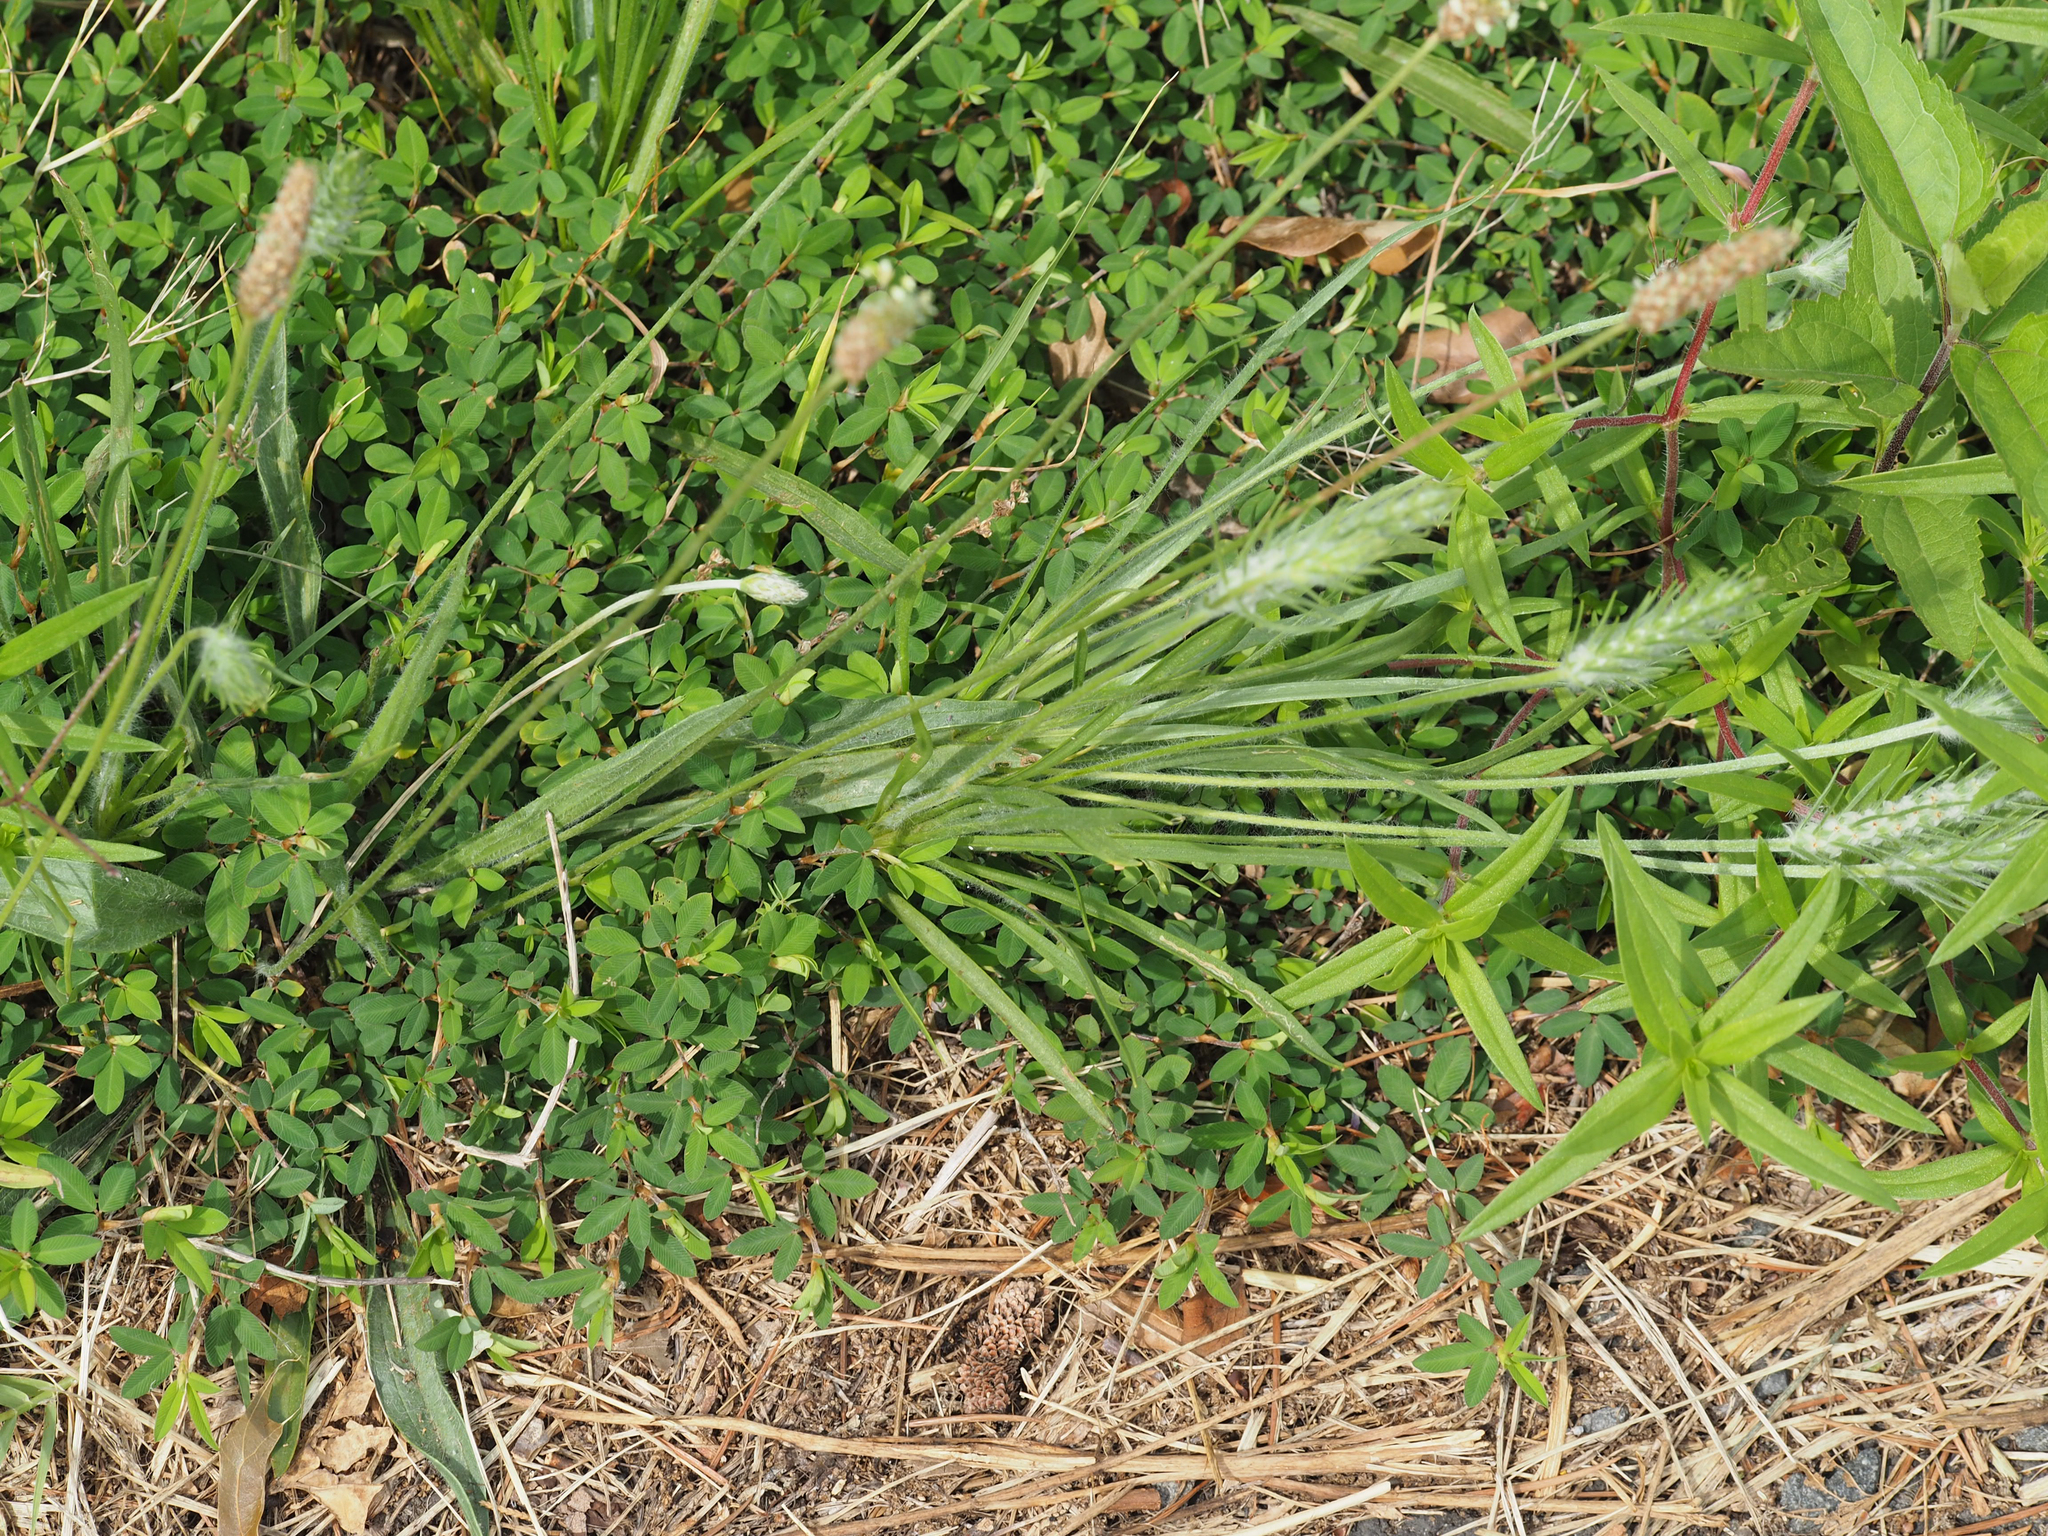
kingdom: Plantae
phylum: Tracheophyta
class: Magnoliopsida
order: Lamiales
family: Plantaginaceae
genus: Plantago
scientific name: Plantago aristata
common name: Bracted plantain
